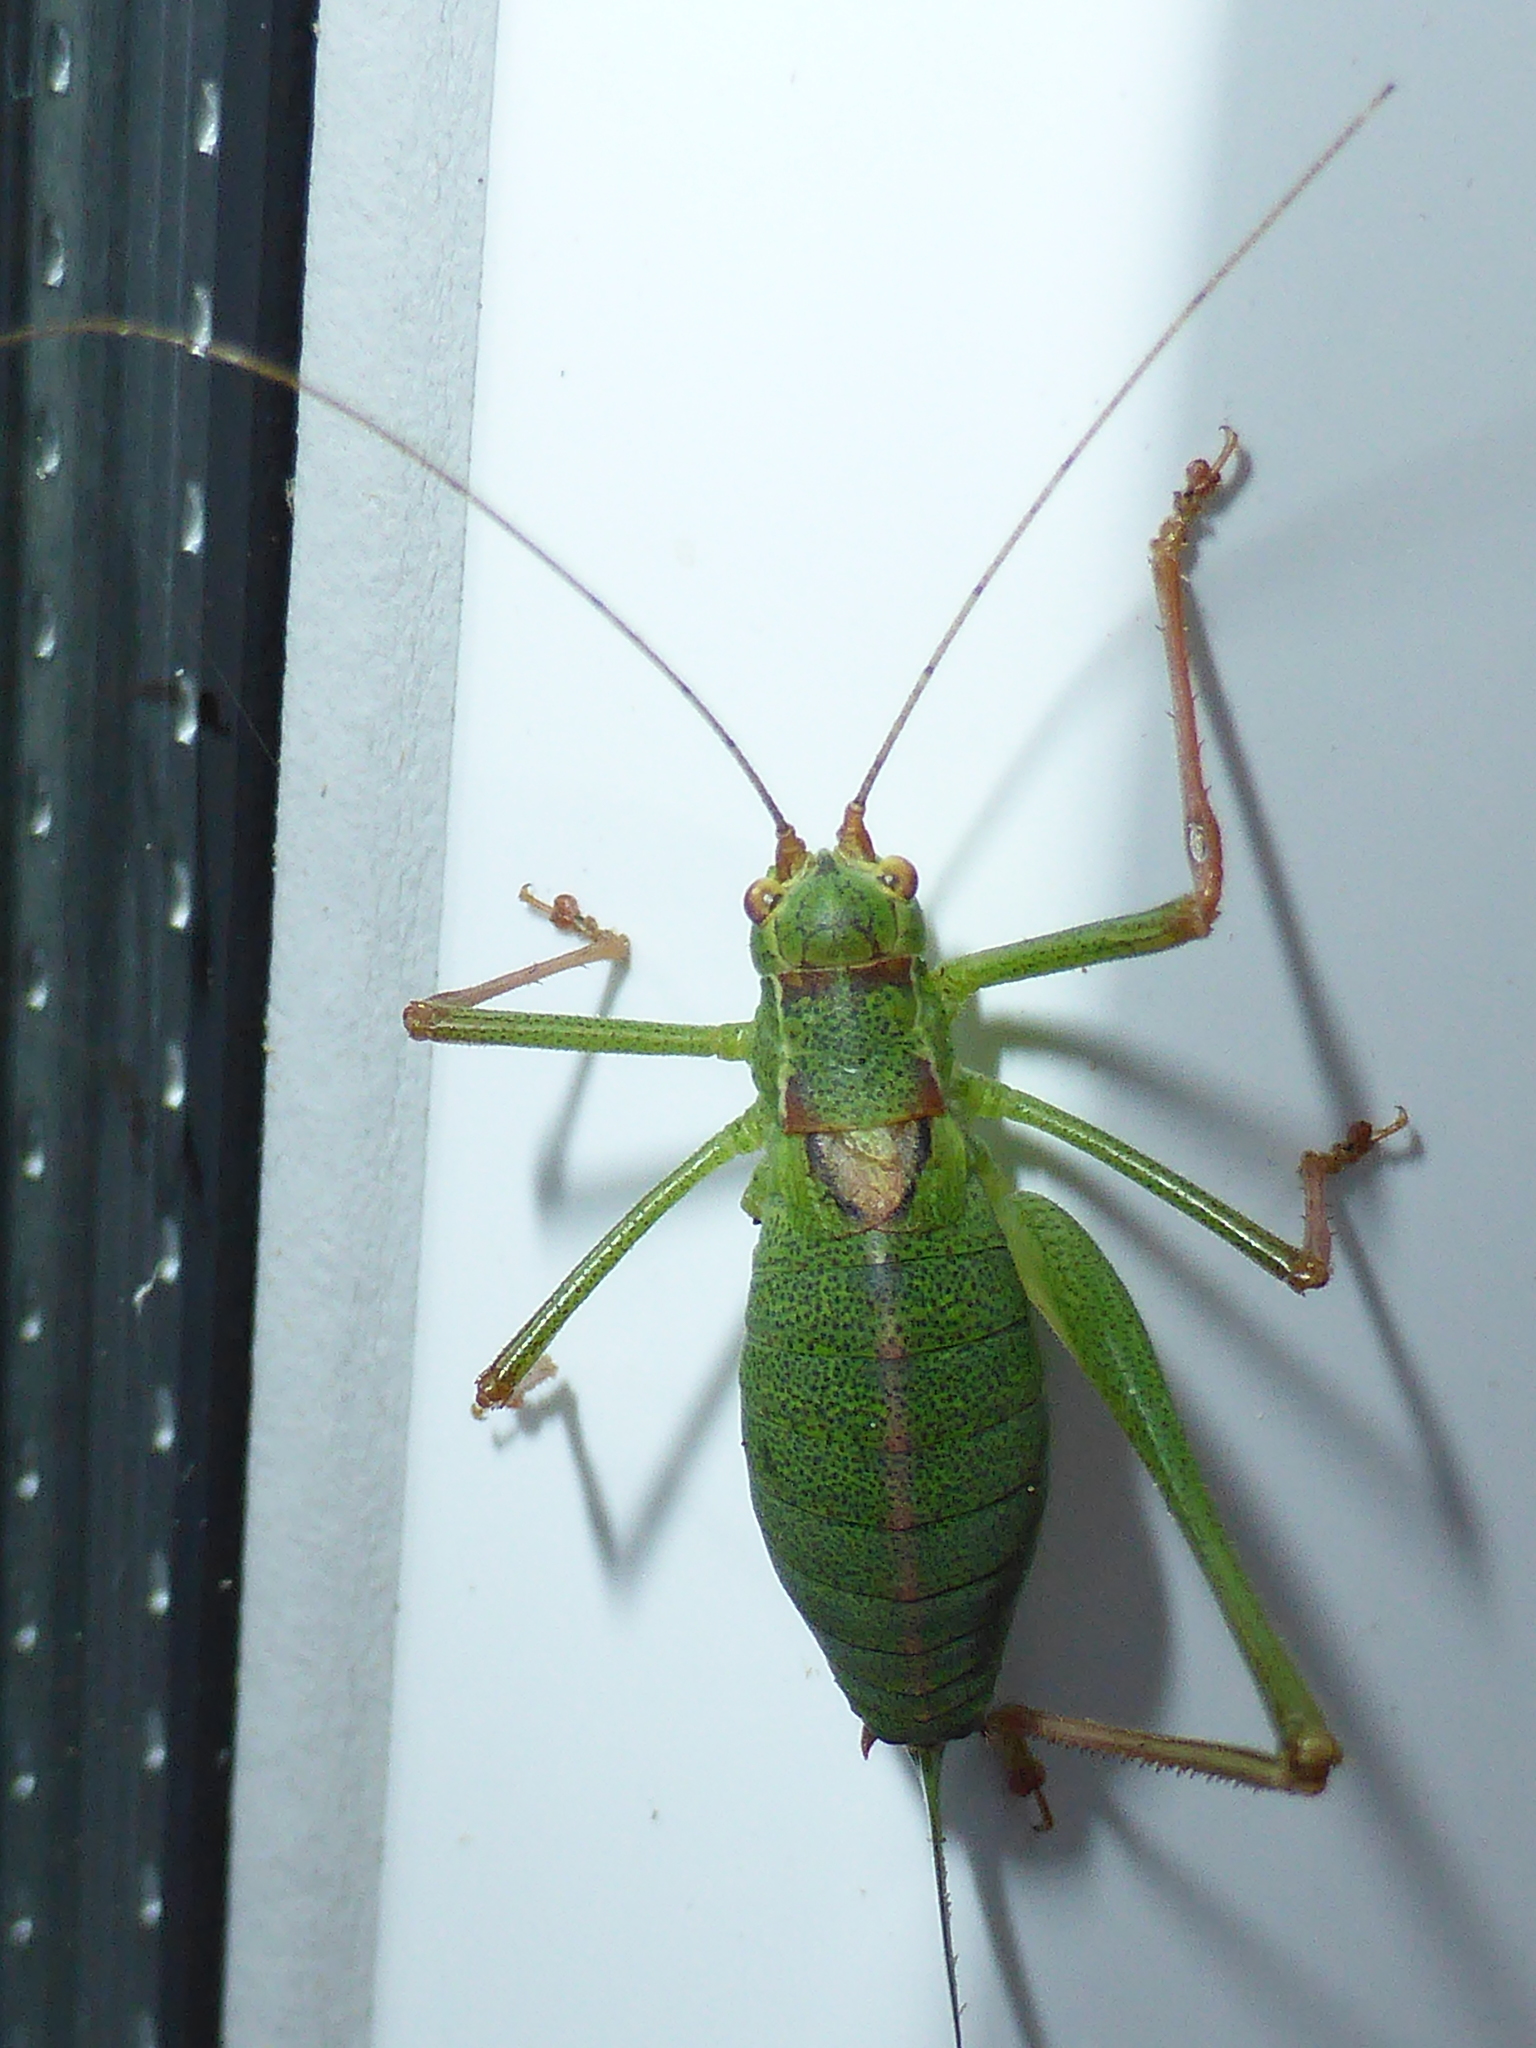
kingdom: Animalia
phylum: Arthropoda
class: Insecta
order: Orthoptera
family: Tettigoniidae
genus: Leptophyes
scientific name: Leptophyes punctatissima
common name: Speckled bush-cricket
